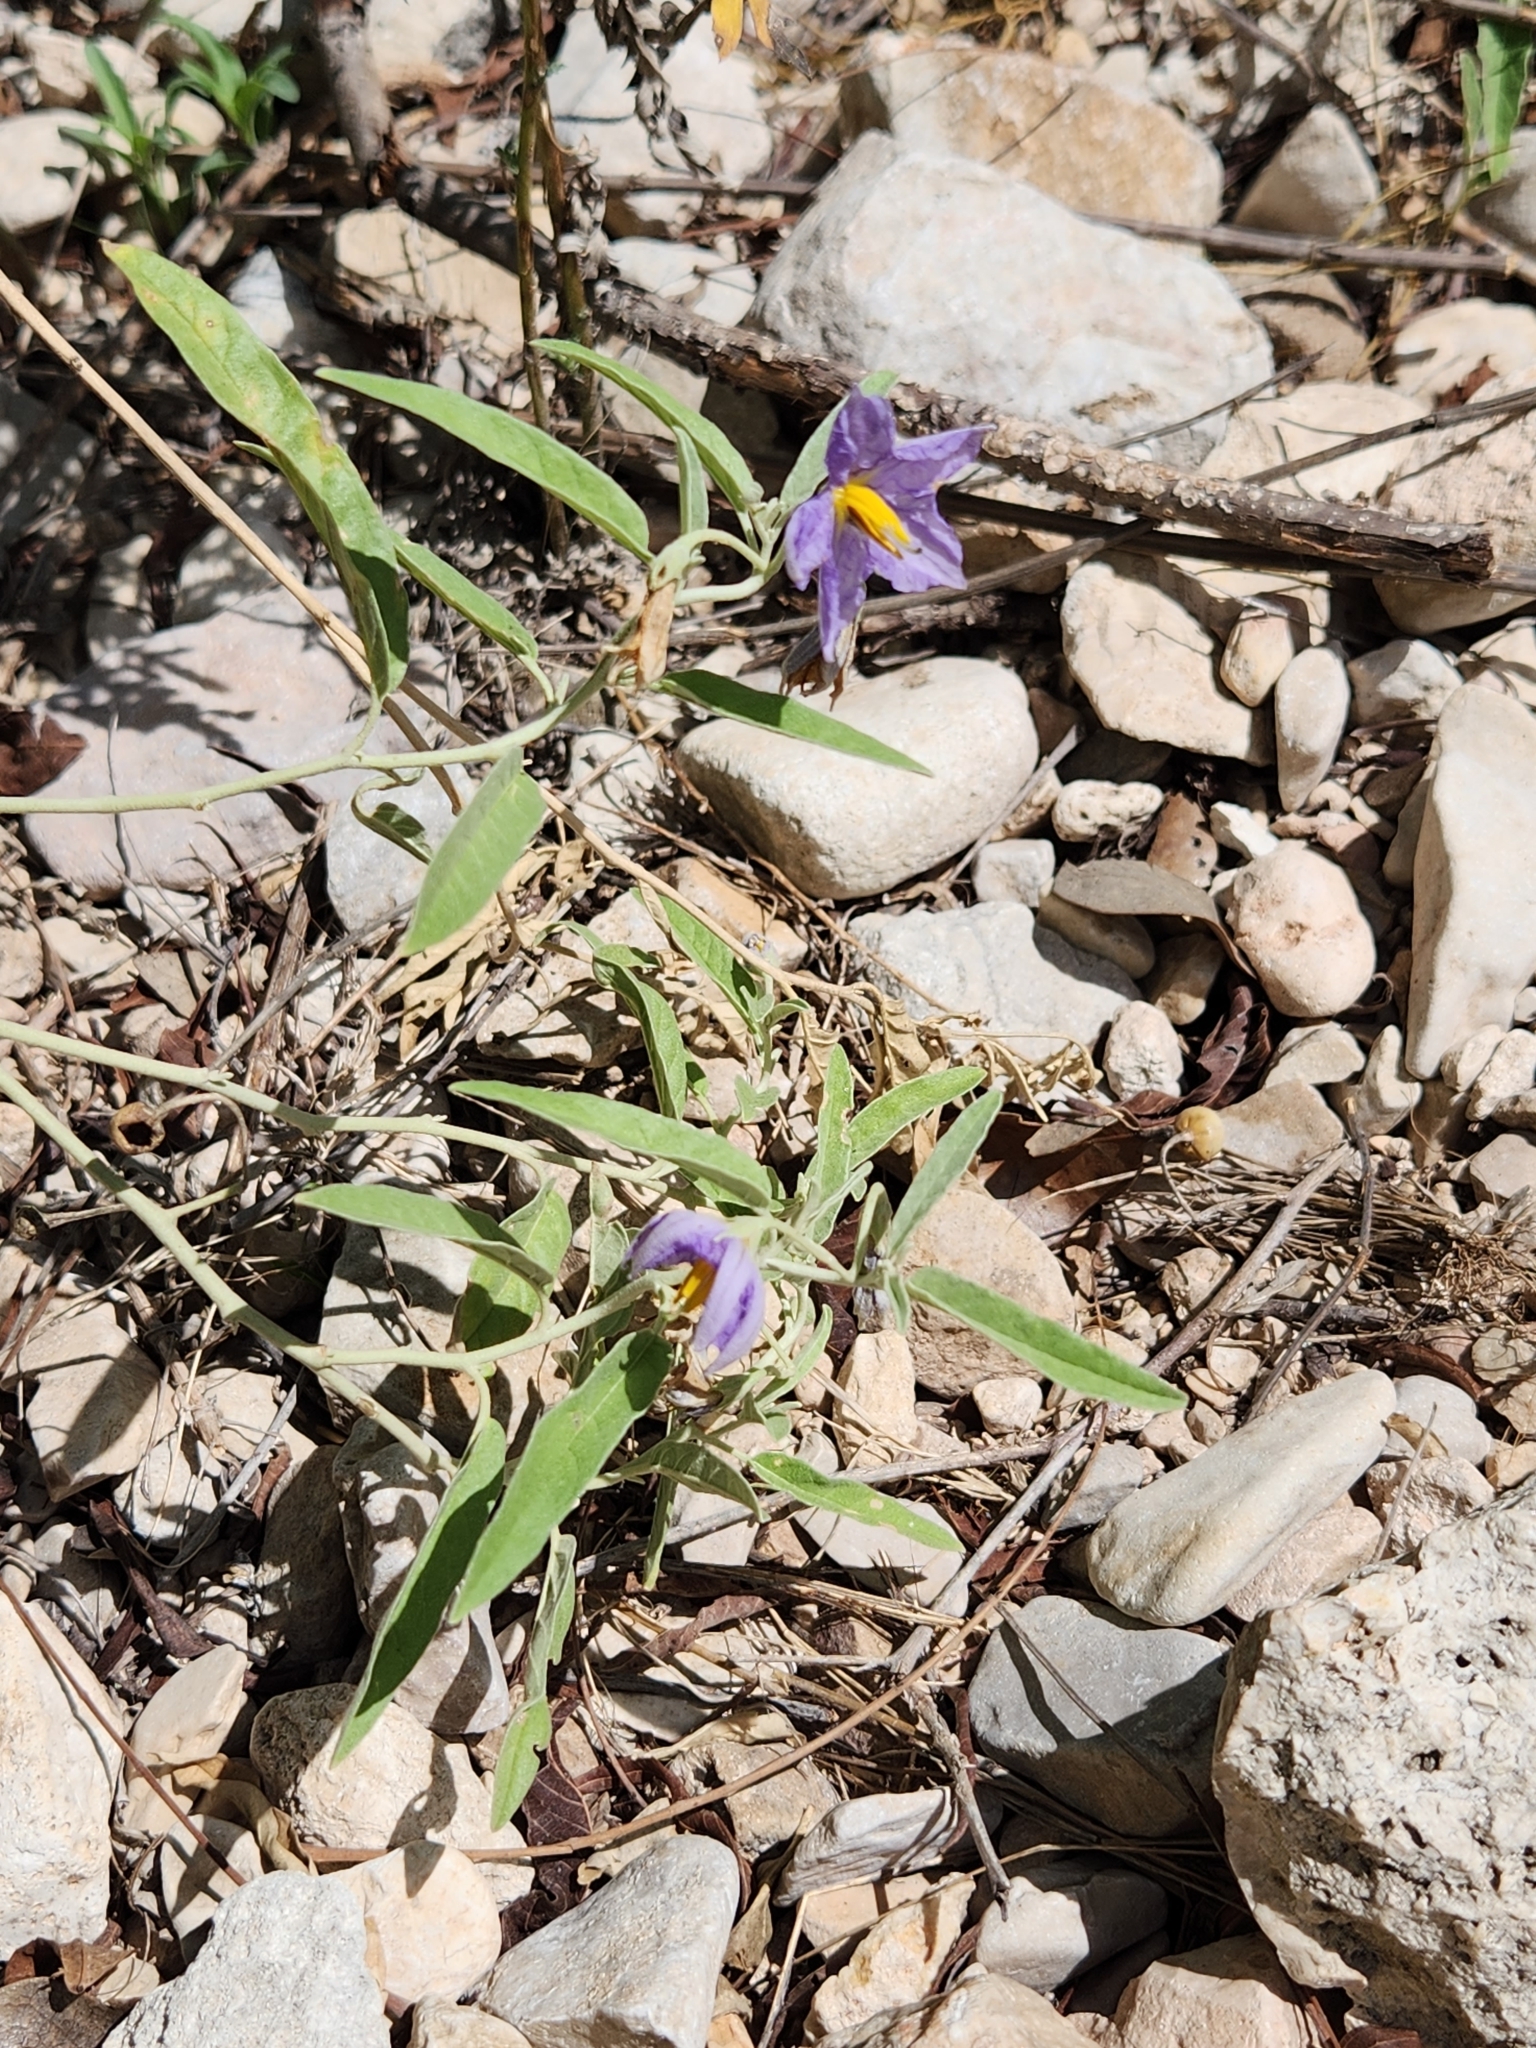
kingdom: Plantae
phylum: Tracheophyta
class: Magnoliopsida
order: Solanales
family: Solanaceae
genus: Solanum
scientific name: Solanum elaeagnifolium
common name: Silverleaf nightshade
